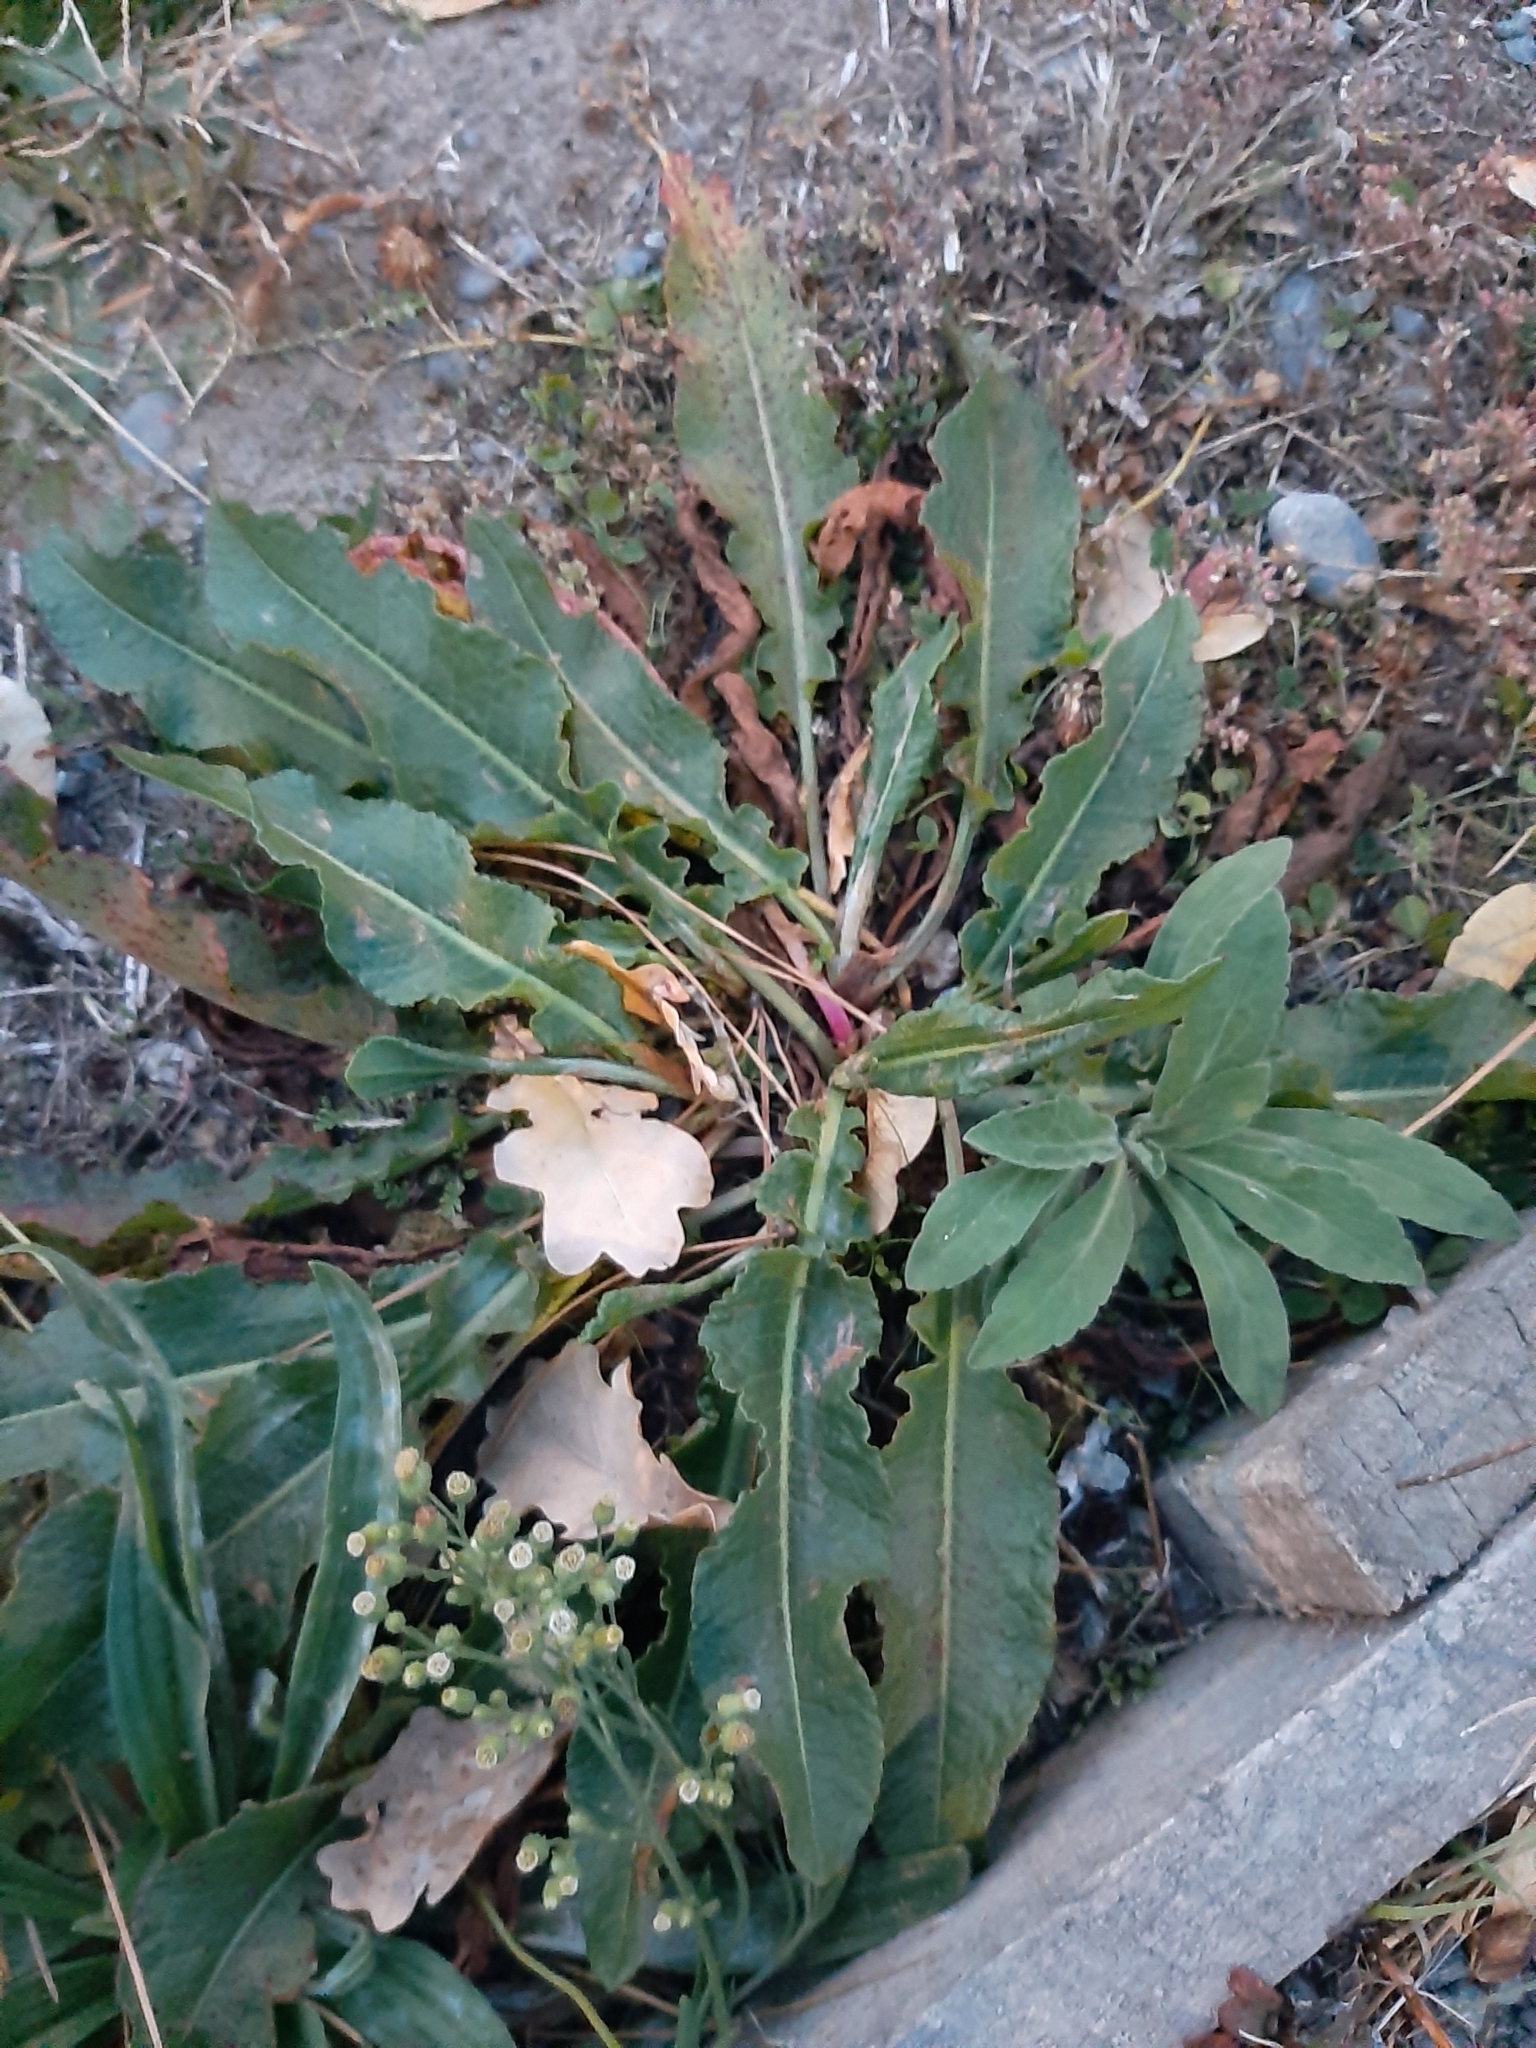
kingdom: Plantae
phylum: Tracheophyta
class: Magnoliopsida
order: Caryophyllales
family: Polygonaceae
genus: Rumex
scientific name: Rumex crispus
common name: Curled dock
